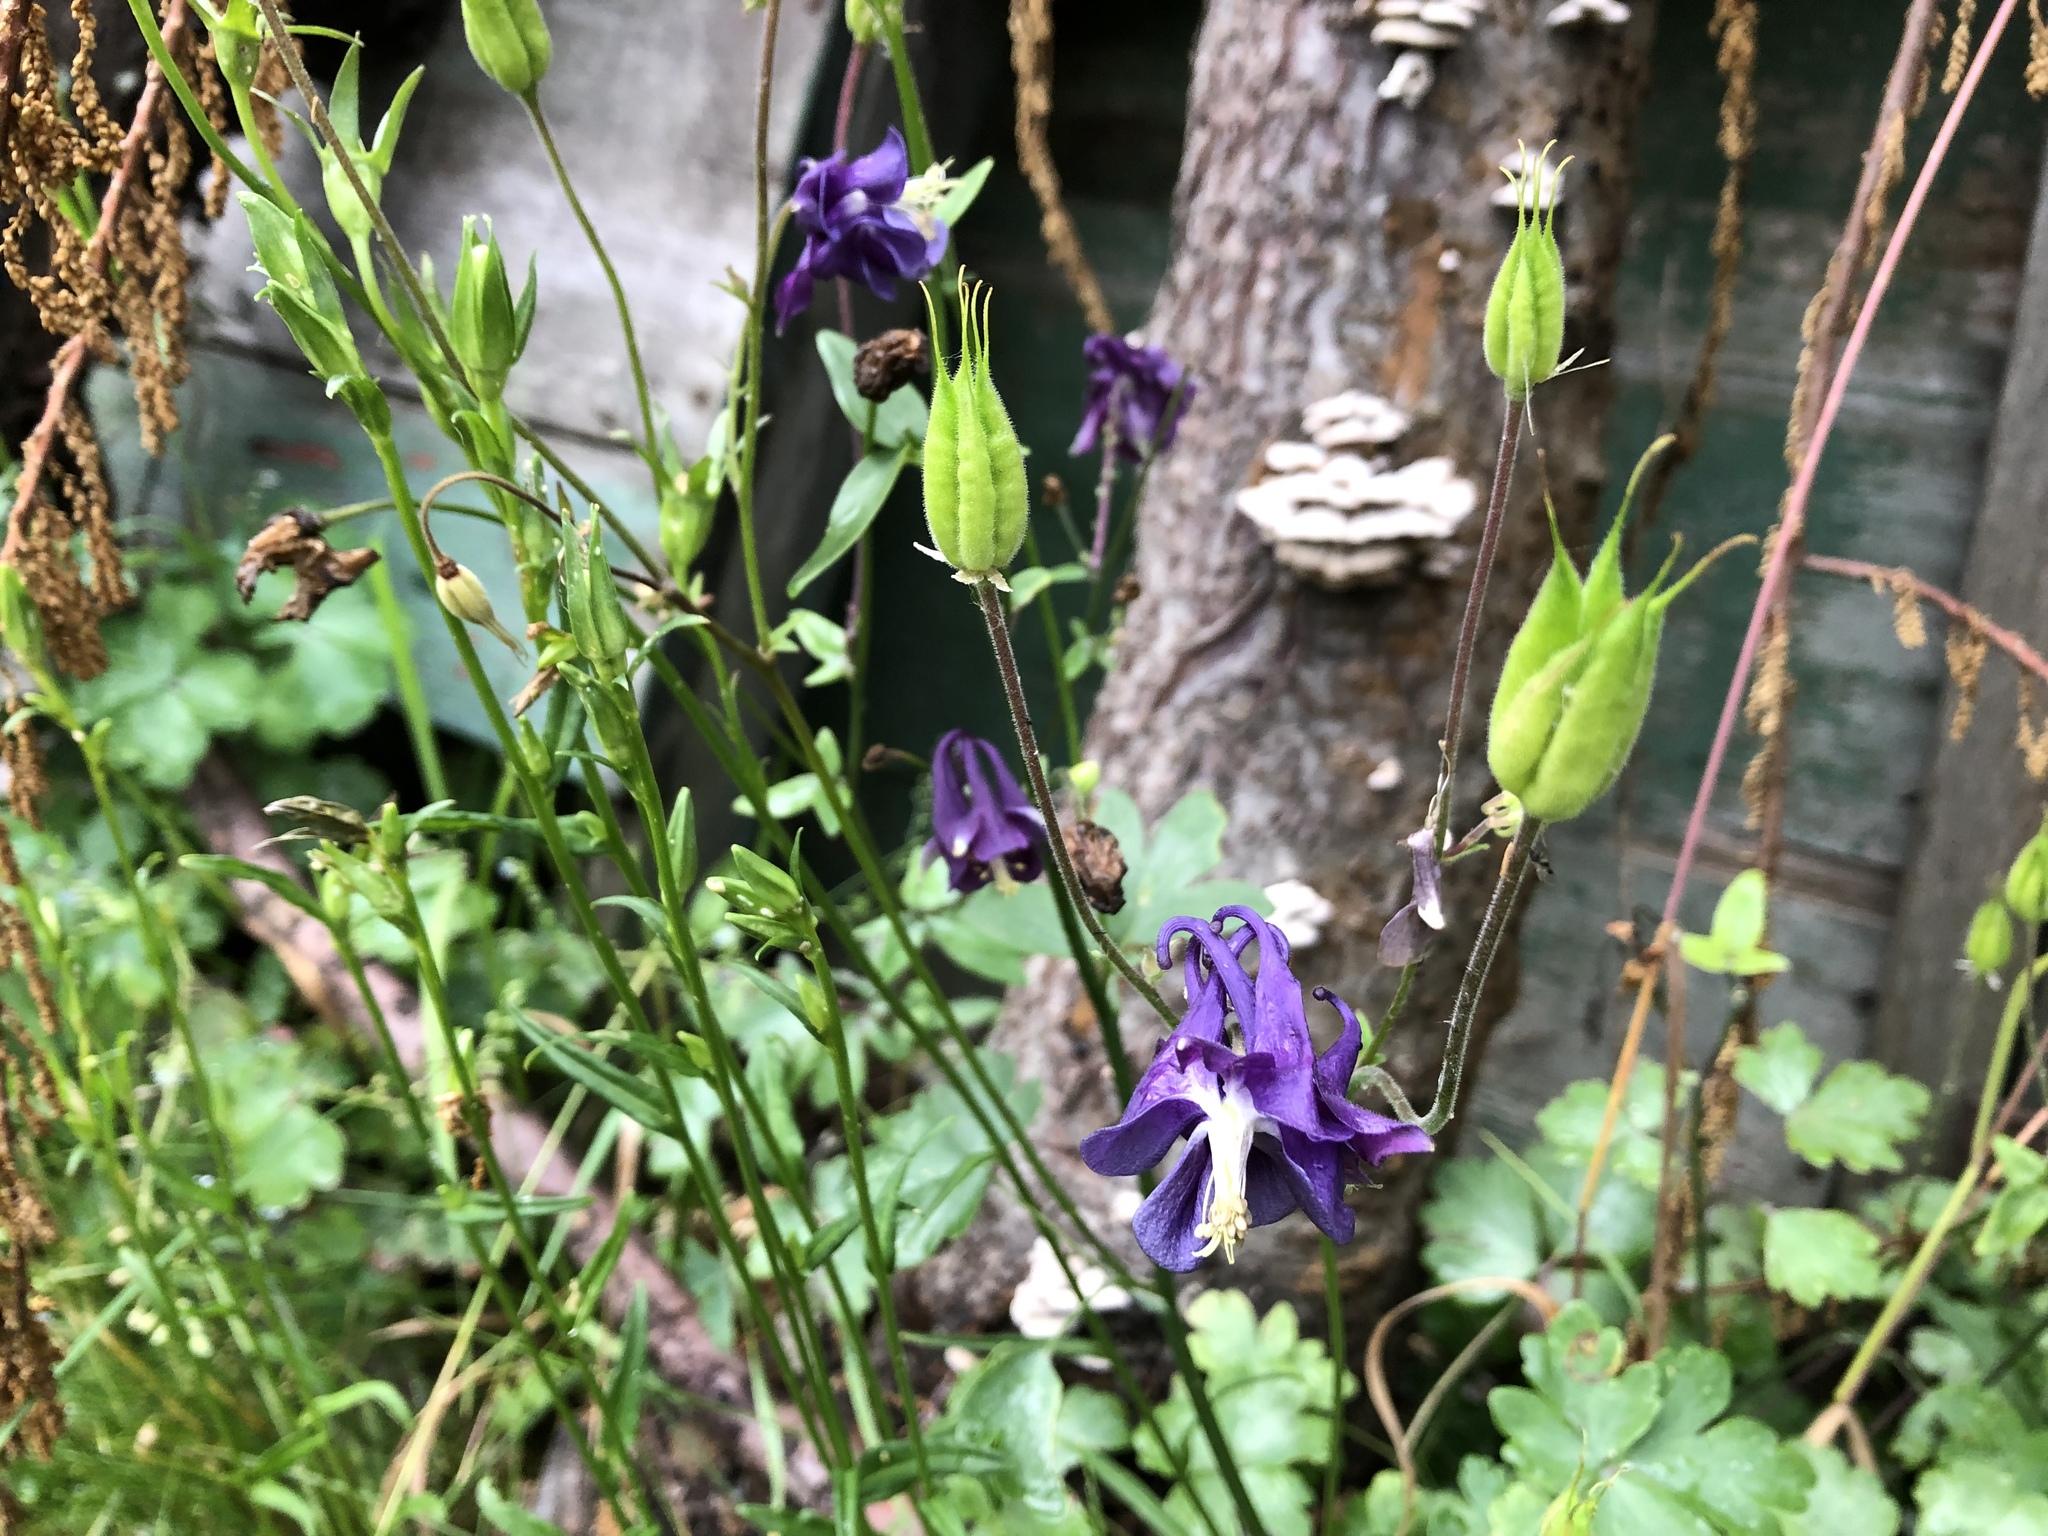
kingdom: Plantae
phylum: Tracheophyta
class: Magnoliopsida
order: Ranunculales
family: Ranunculaceae
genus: Aquilegia
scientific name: Aquilegia vulgaris
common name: Columbine
